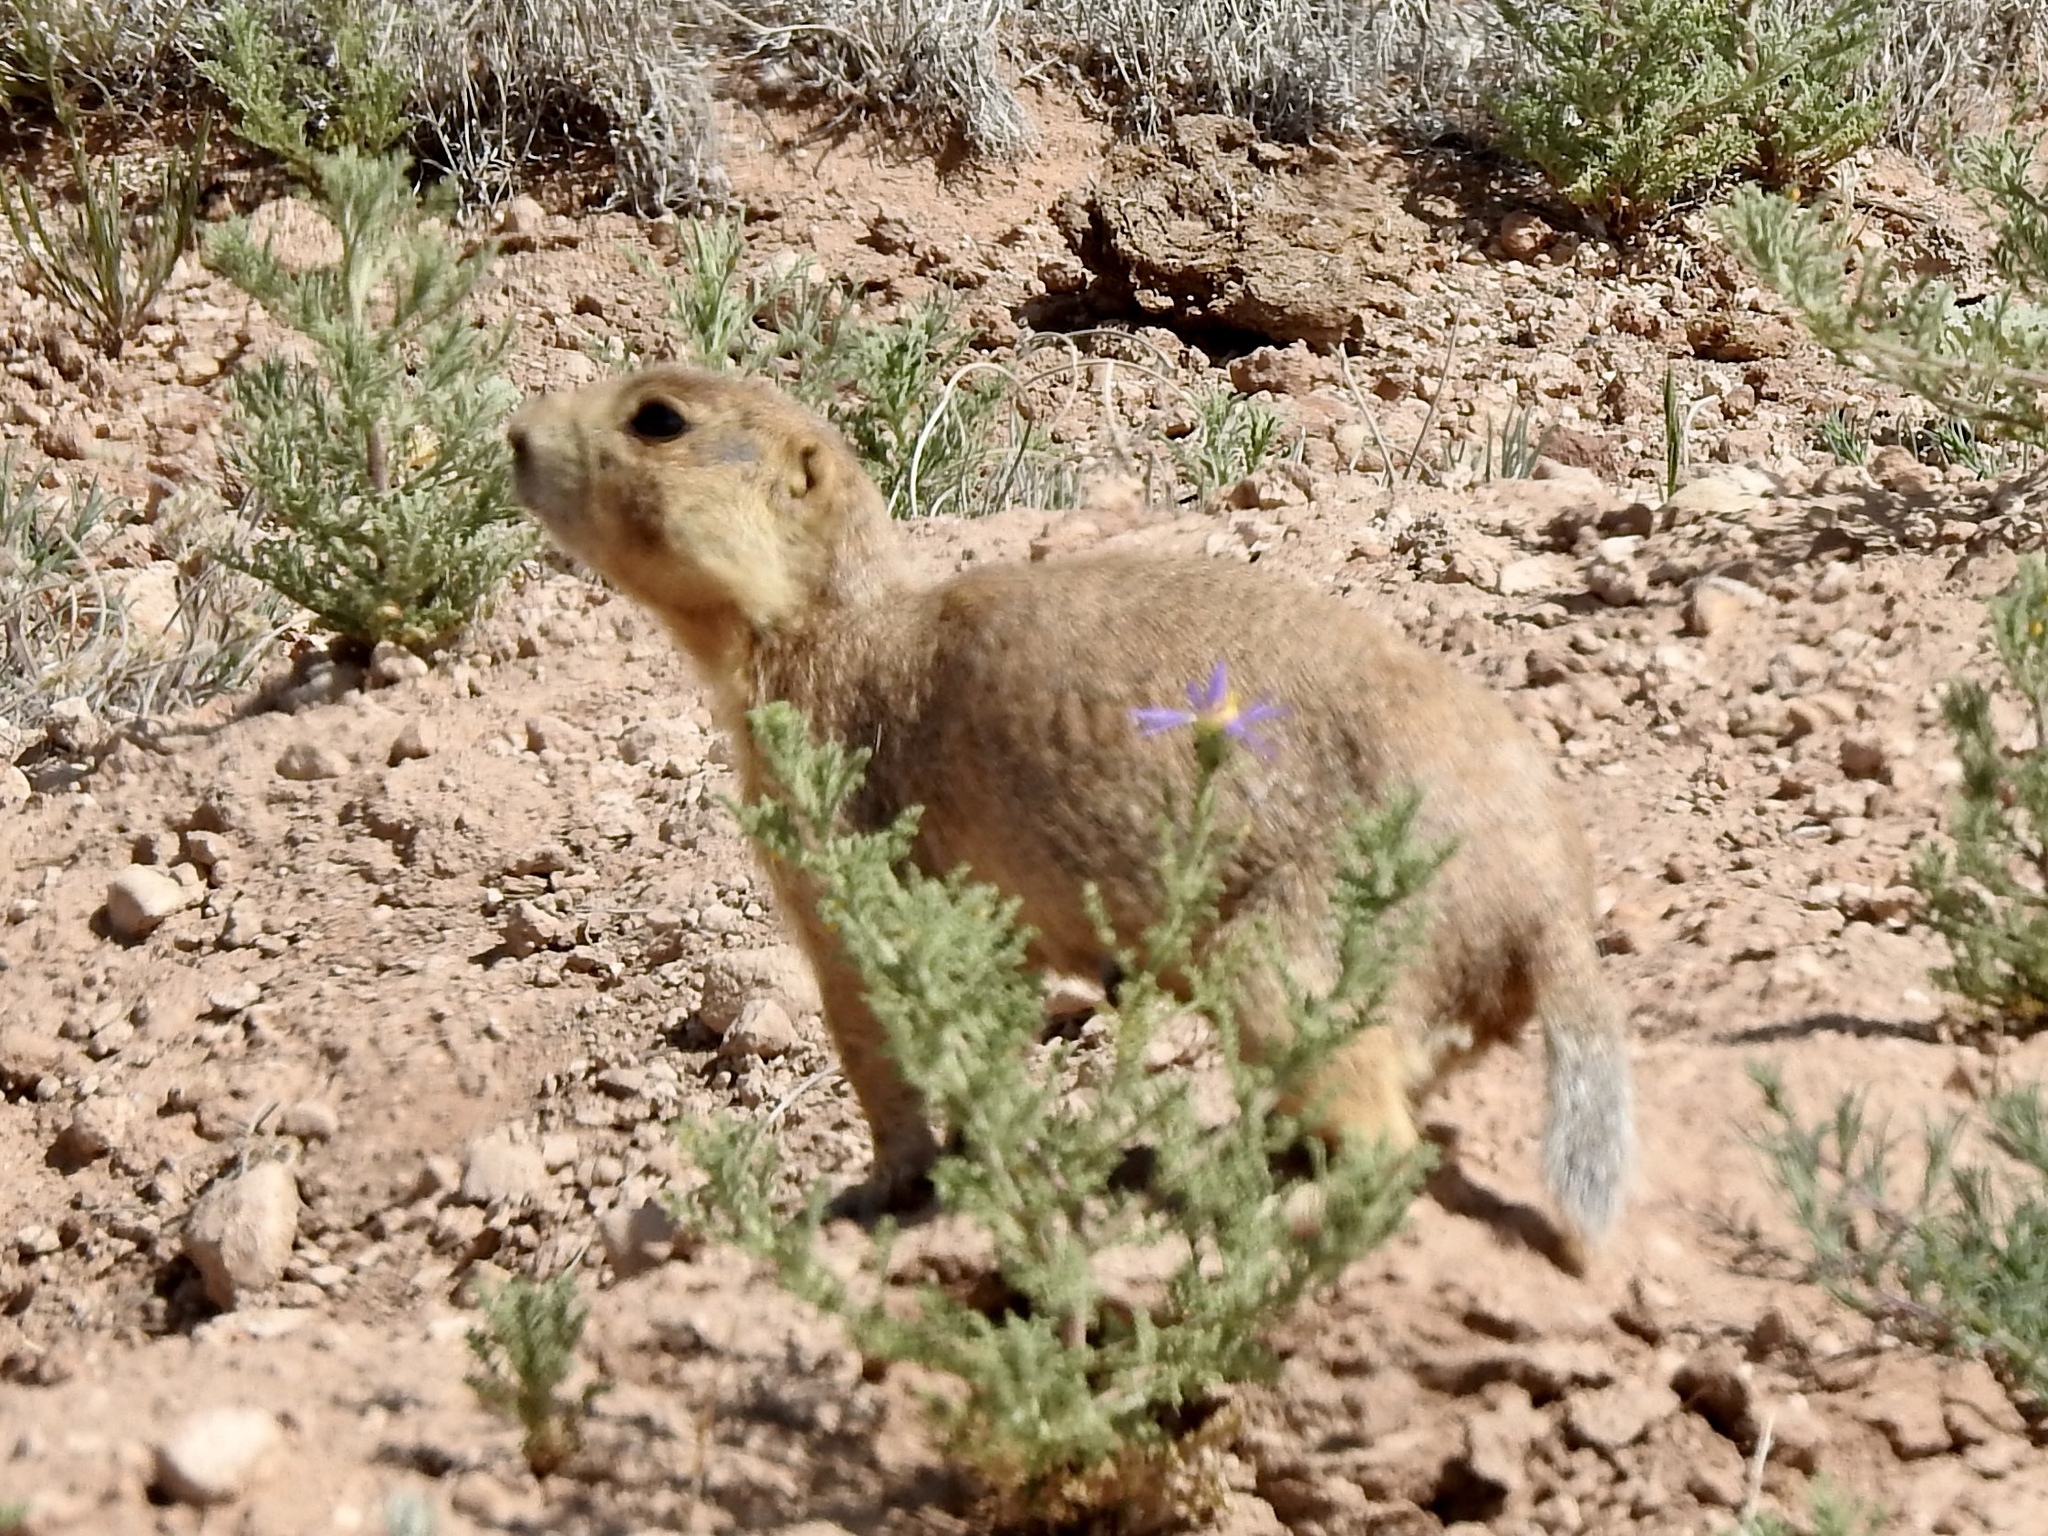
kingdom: Animalia
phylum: Chordata
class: Mammalia
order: Rodentia
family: Sciuridae
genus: Cynomys
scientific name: Cynomys gunnisoni
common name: Gunnison's prairie dog
